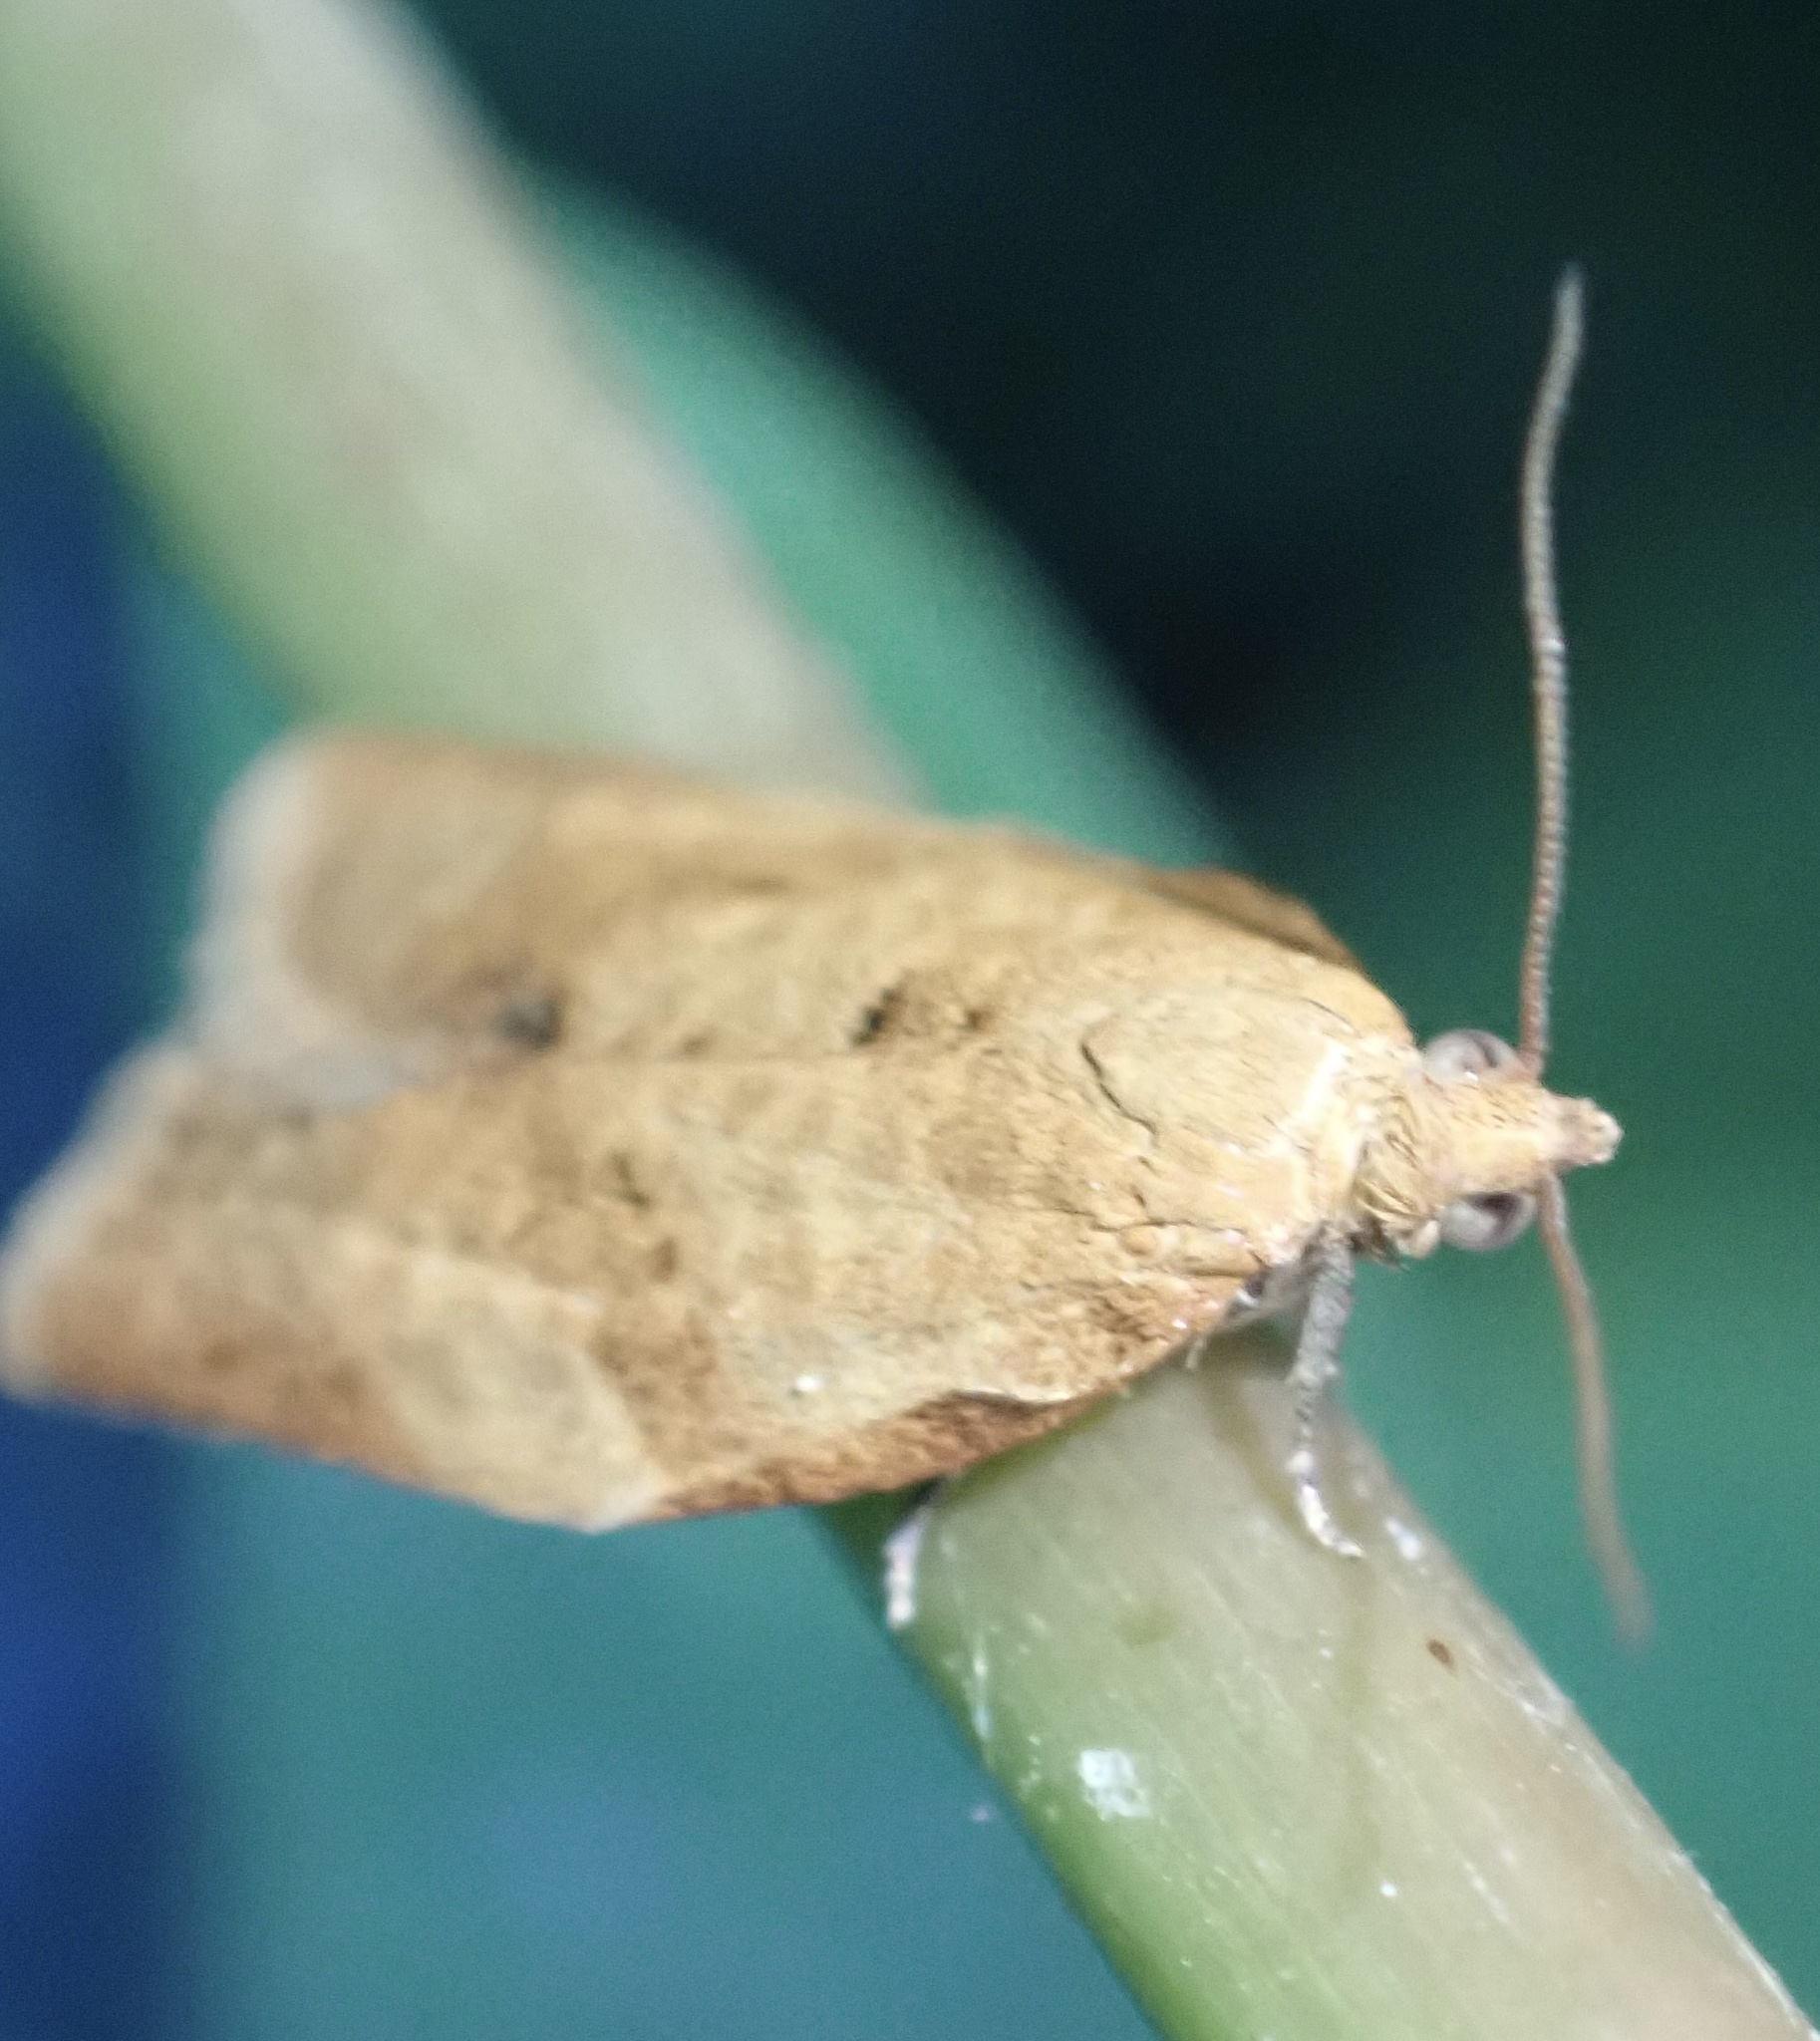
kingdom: Animalia
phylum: Arthropoda
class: Insecta
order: Lepidoptera
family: Tortricidae
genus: Clepsis
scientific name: Clepsis consimilana
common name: Privet tortrix
